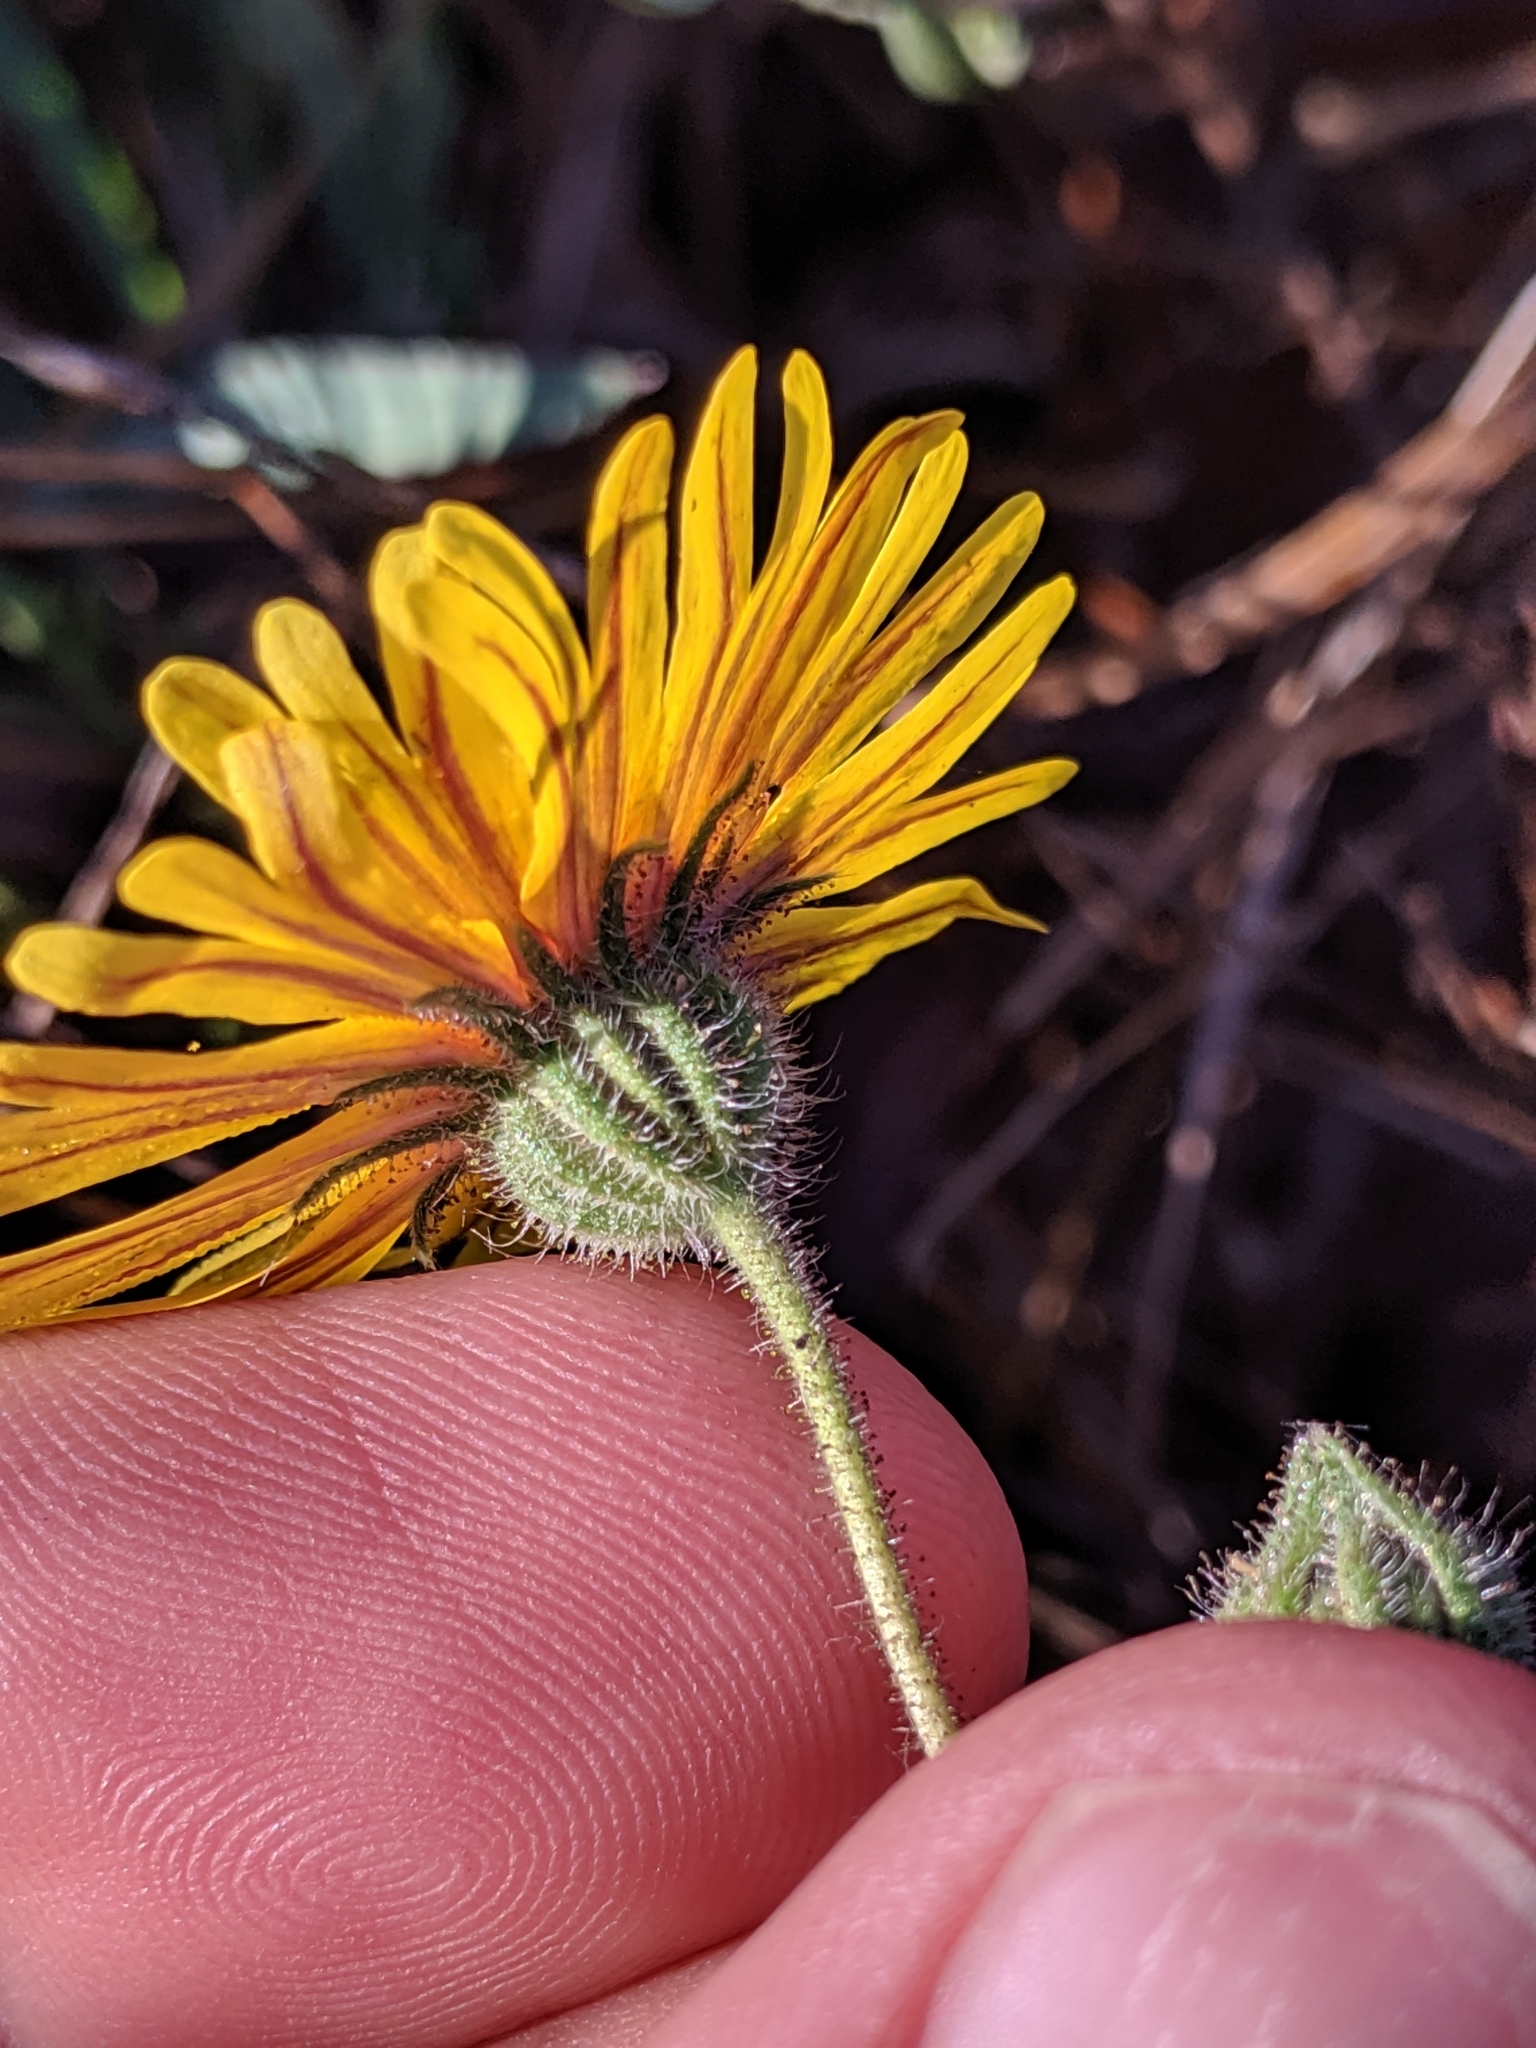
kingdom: Plantae
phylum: Tracheophyta
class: Magnoliopsida
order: Asterales
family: Asteraceae
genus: Madia
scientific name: Madia elegans
